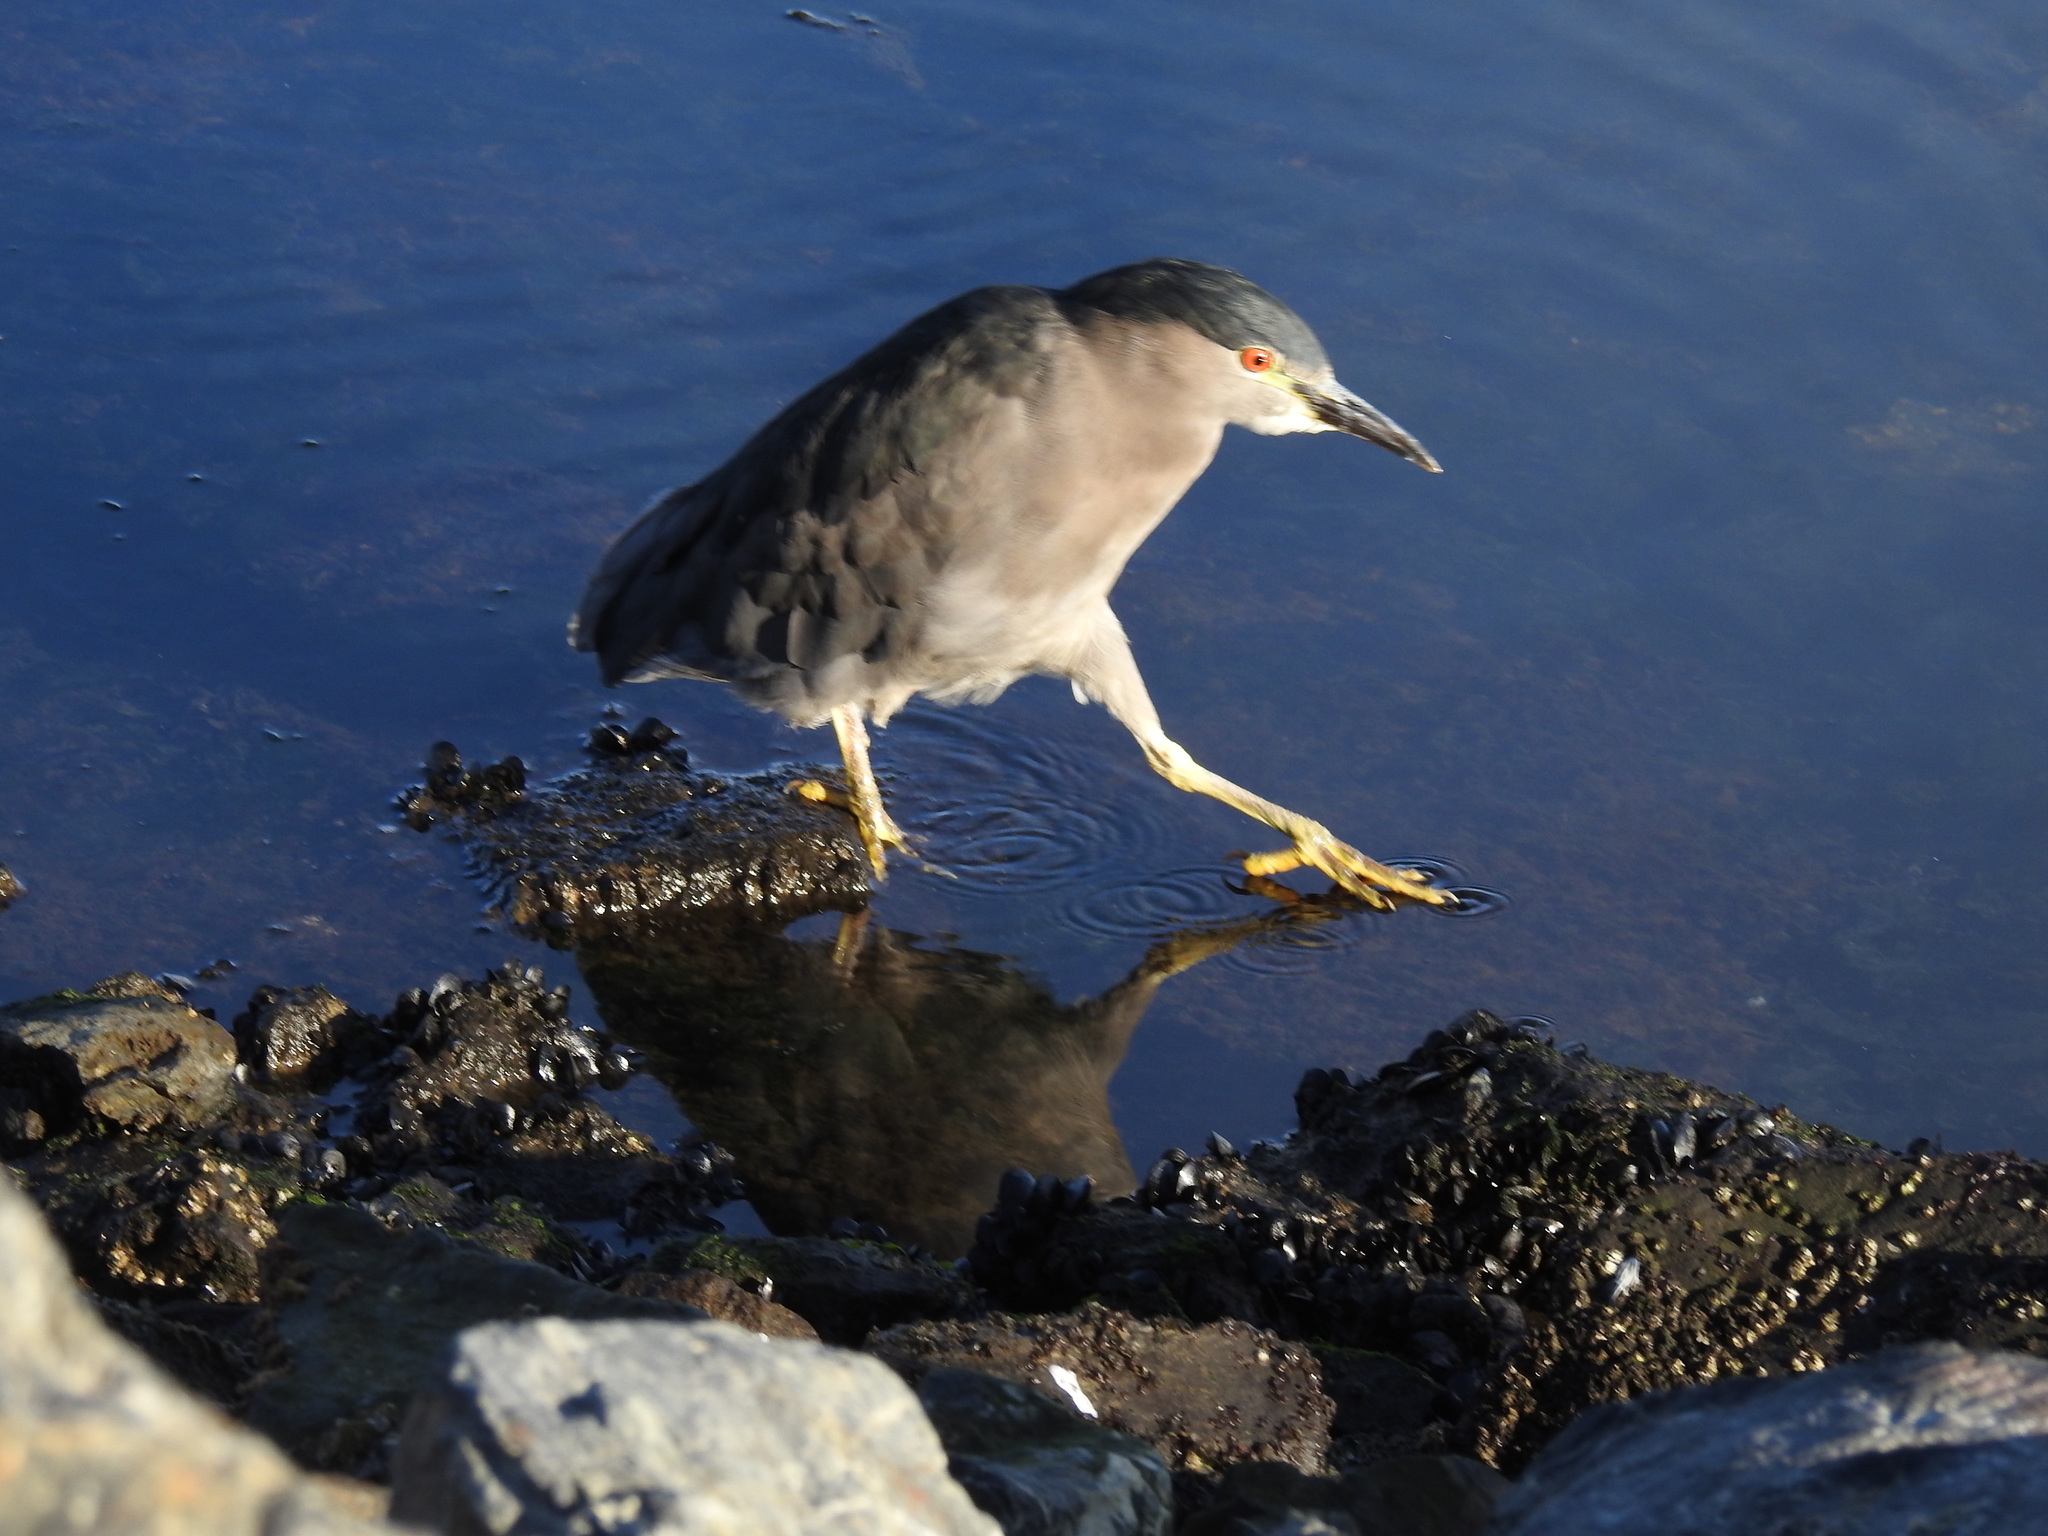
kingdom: Animalia
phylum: Chordata
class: Aves
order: Pelecaniformes
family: Ardeidae
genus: Nycticorax
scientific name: Nycticorax nycticorax
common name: Black-crowned night heron
